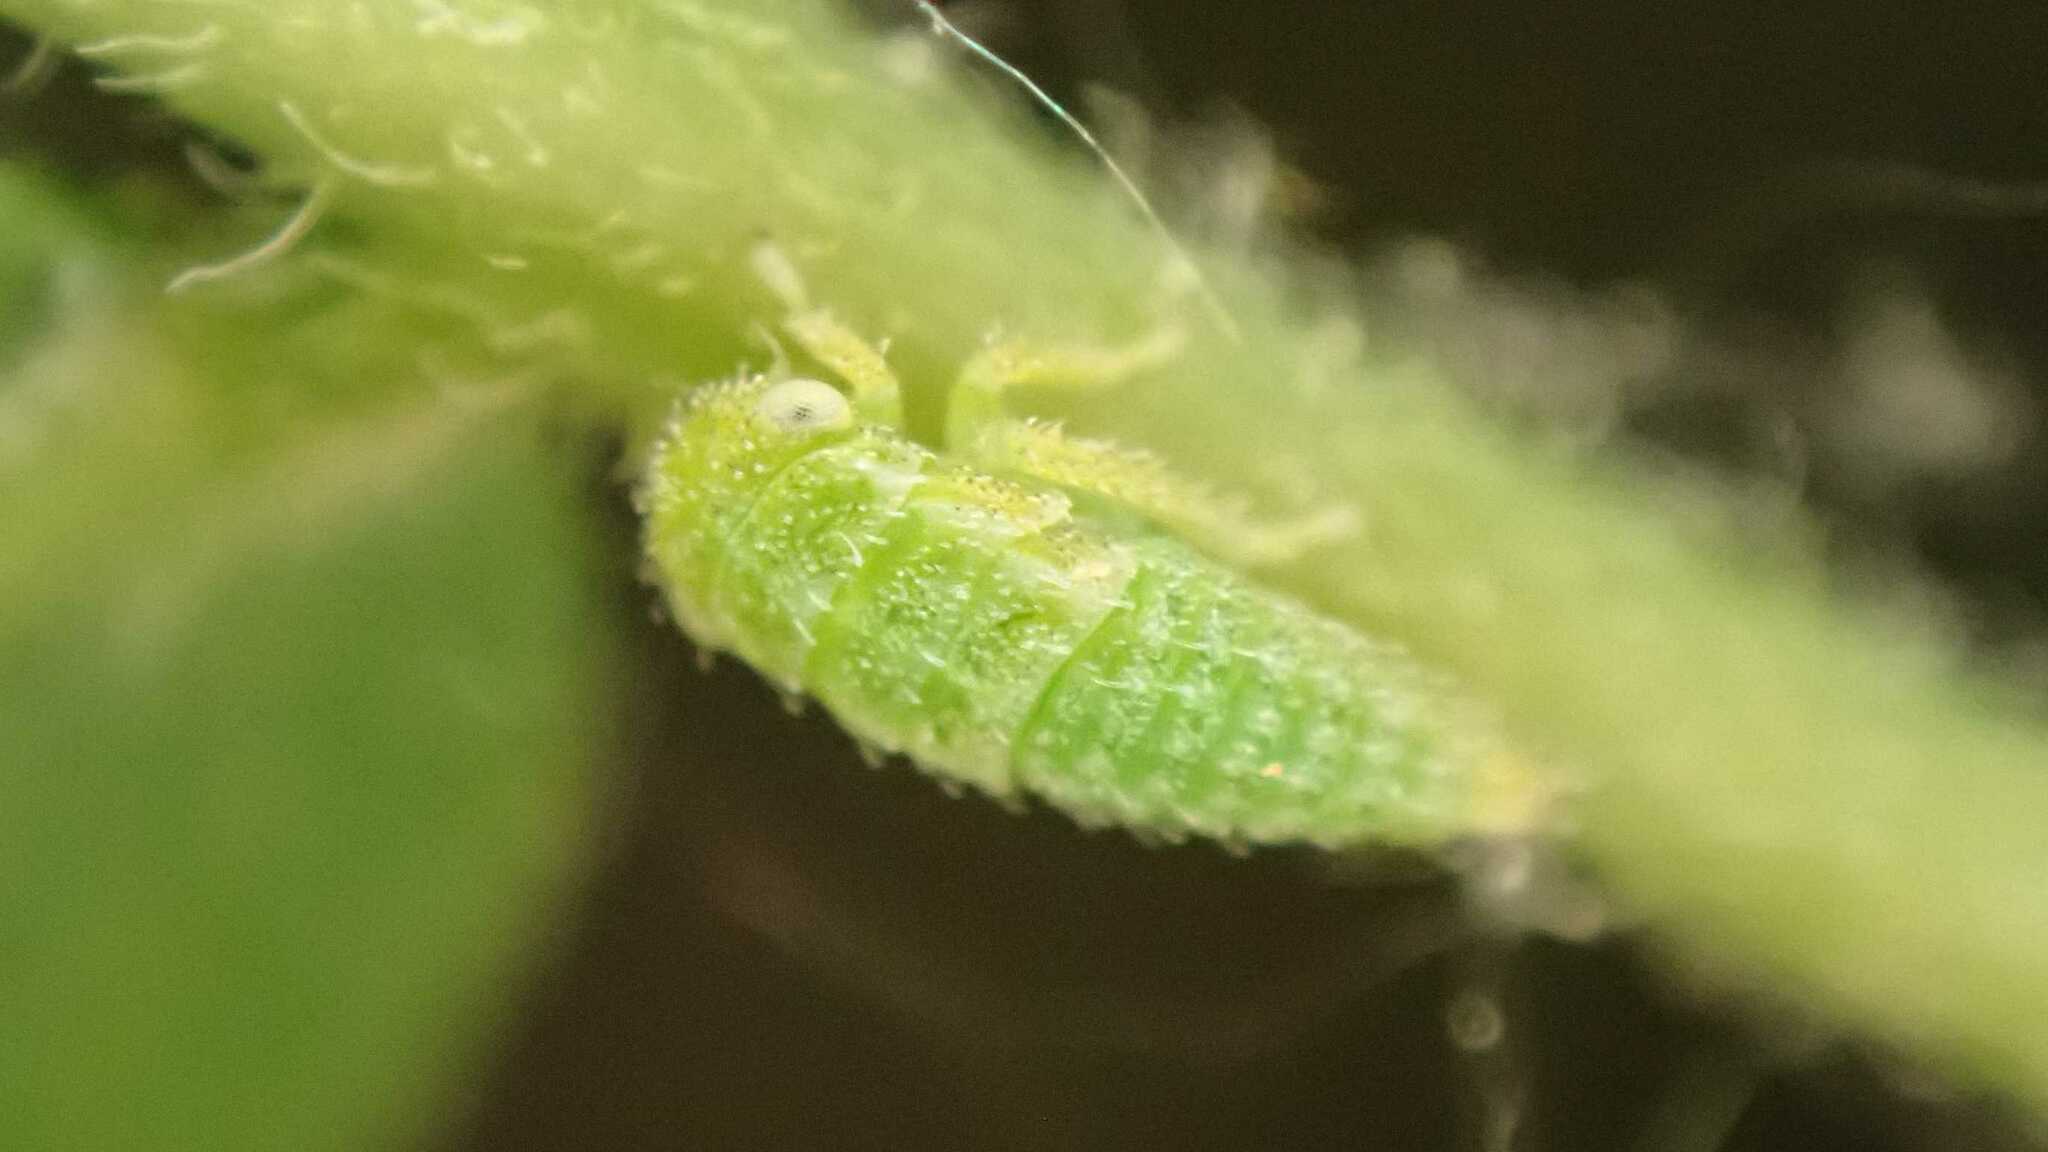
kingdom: Animalia
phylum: Arthropoda
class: Insecta
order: Hemiptera
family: Cicadellidae
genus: Stragania
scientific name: Stragania apicalis
